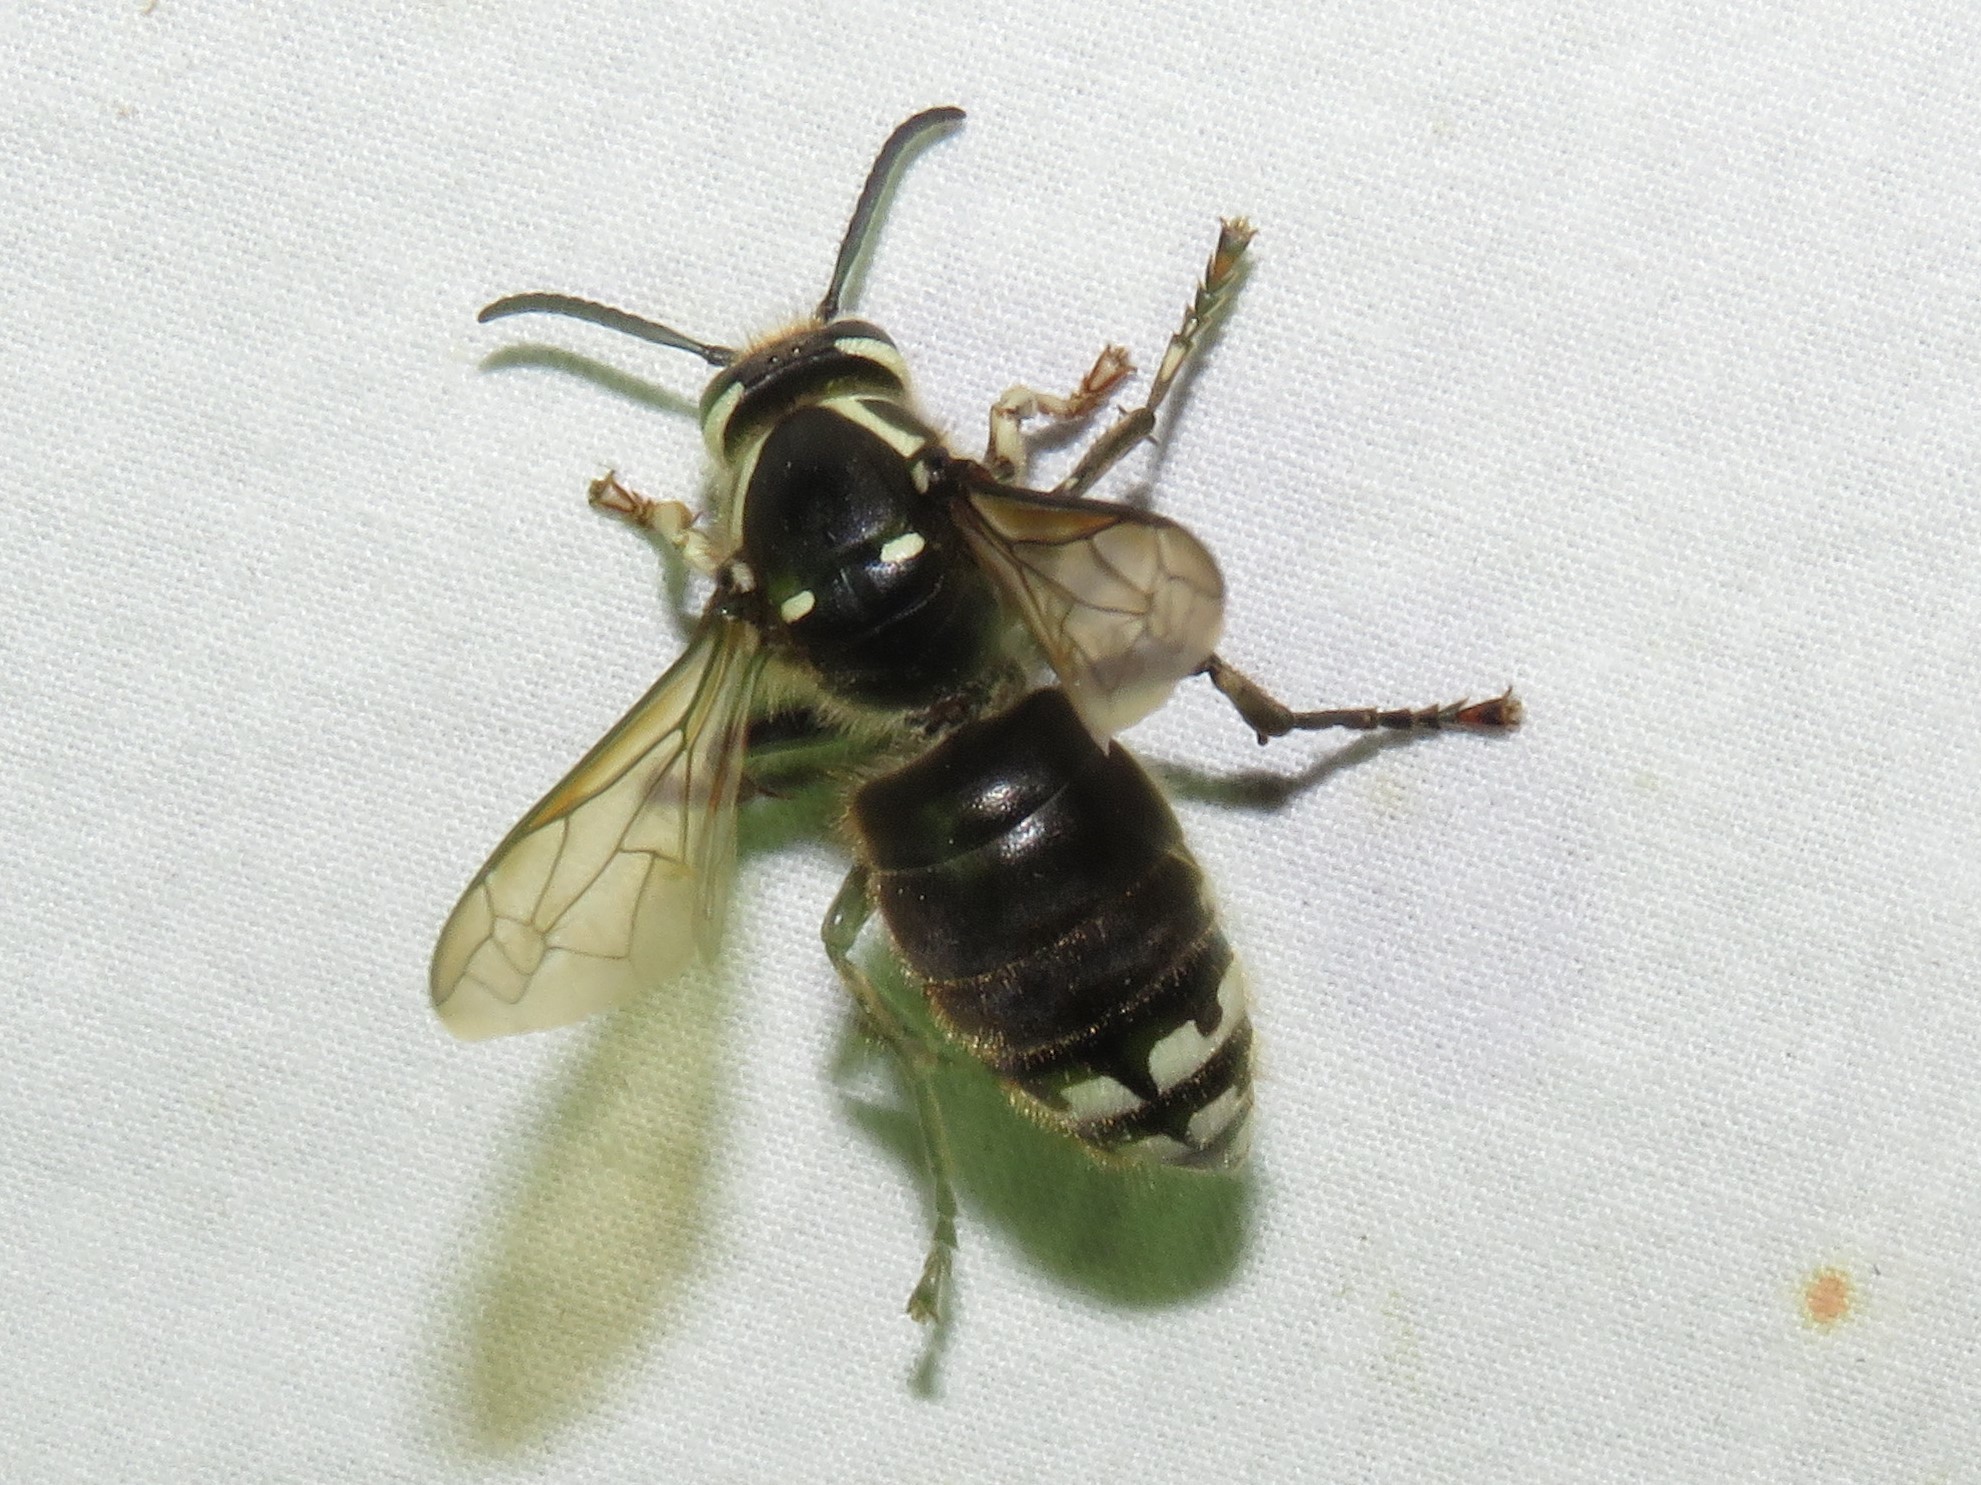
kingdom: Animalia
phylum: Arthropoda
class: Insecta
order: Hymenoptera
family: Vespidae
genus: Dolichovespula
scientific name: Dolichovespula maculata
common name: Bald-faced hornet
